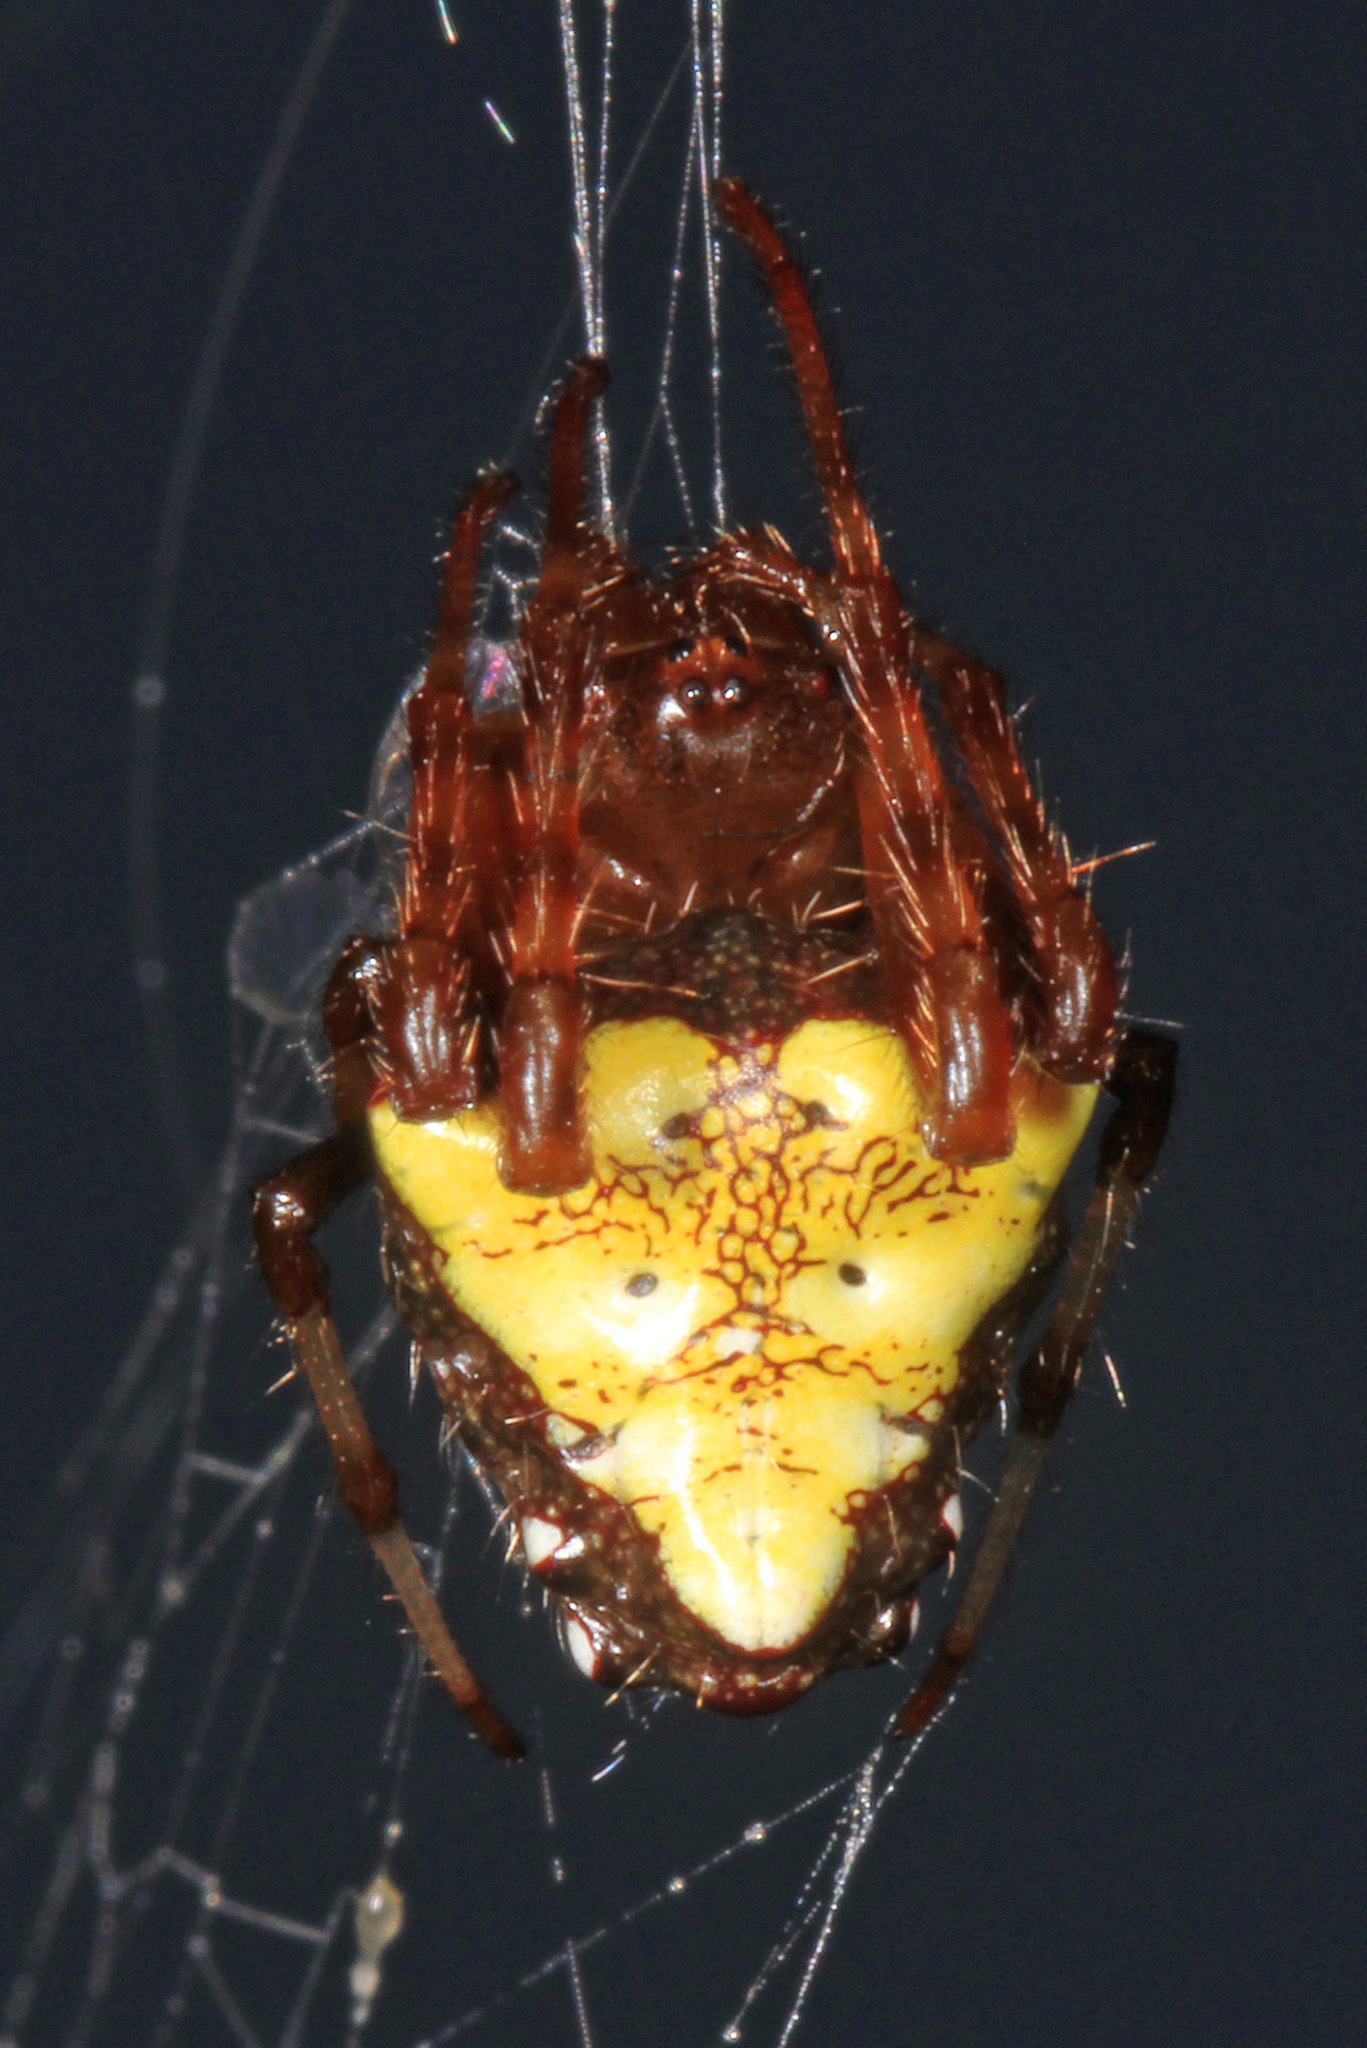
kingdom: Animalia
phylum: Arthropoda
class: Arachnida
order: Araneae
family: Araneidae
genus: Verrucosa
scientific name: Verrucosa arenata
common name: Orb weavers
